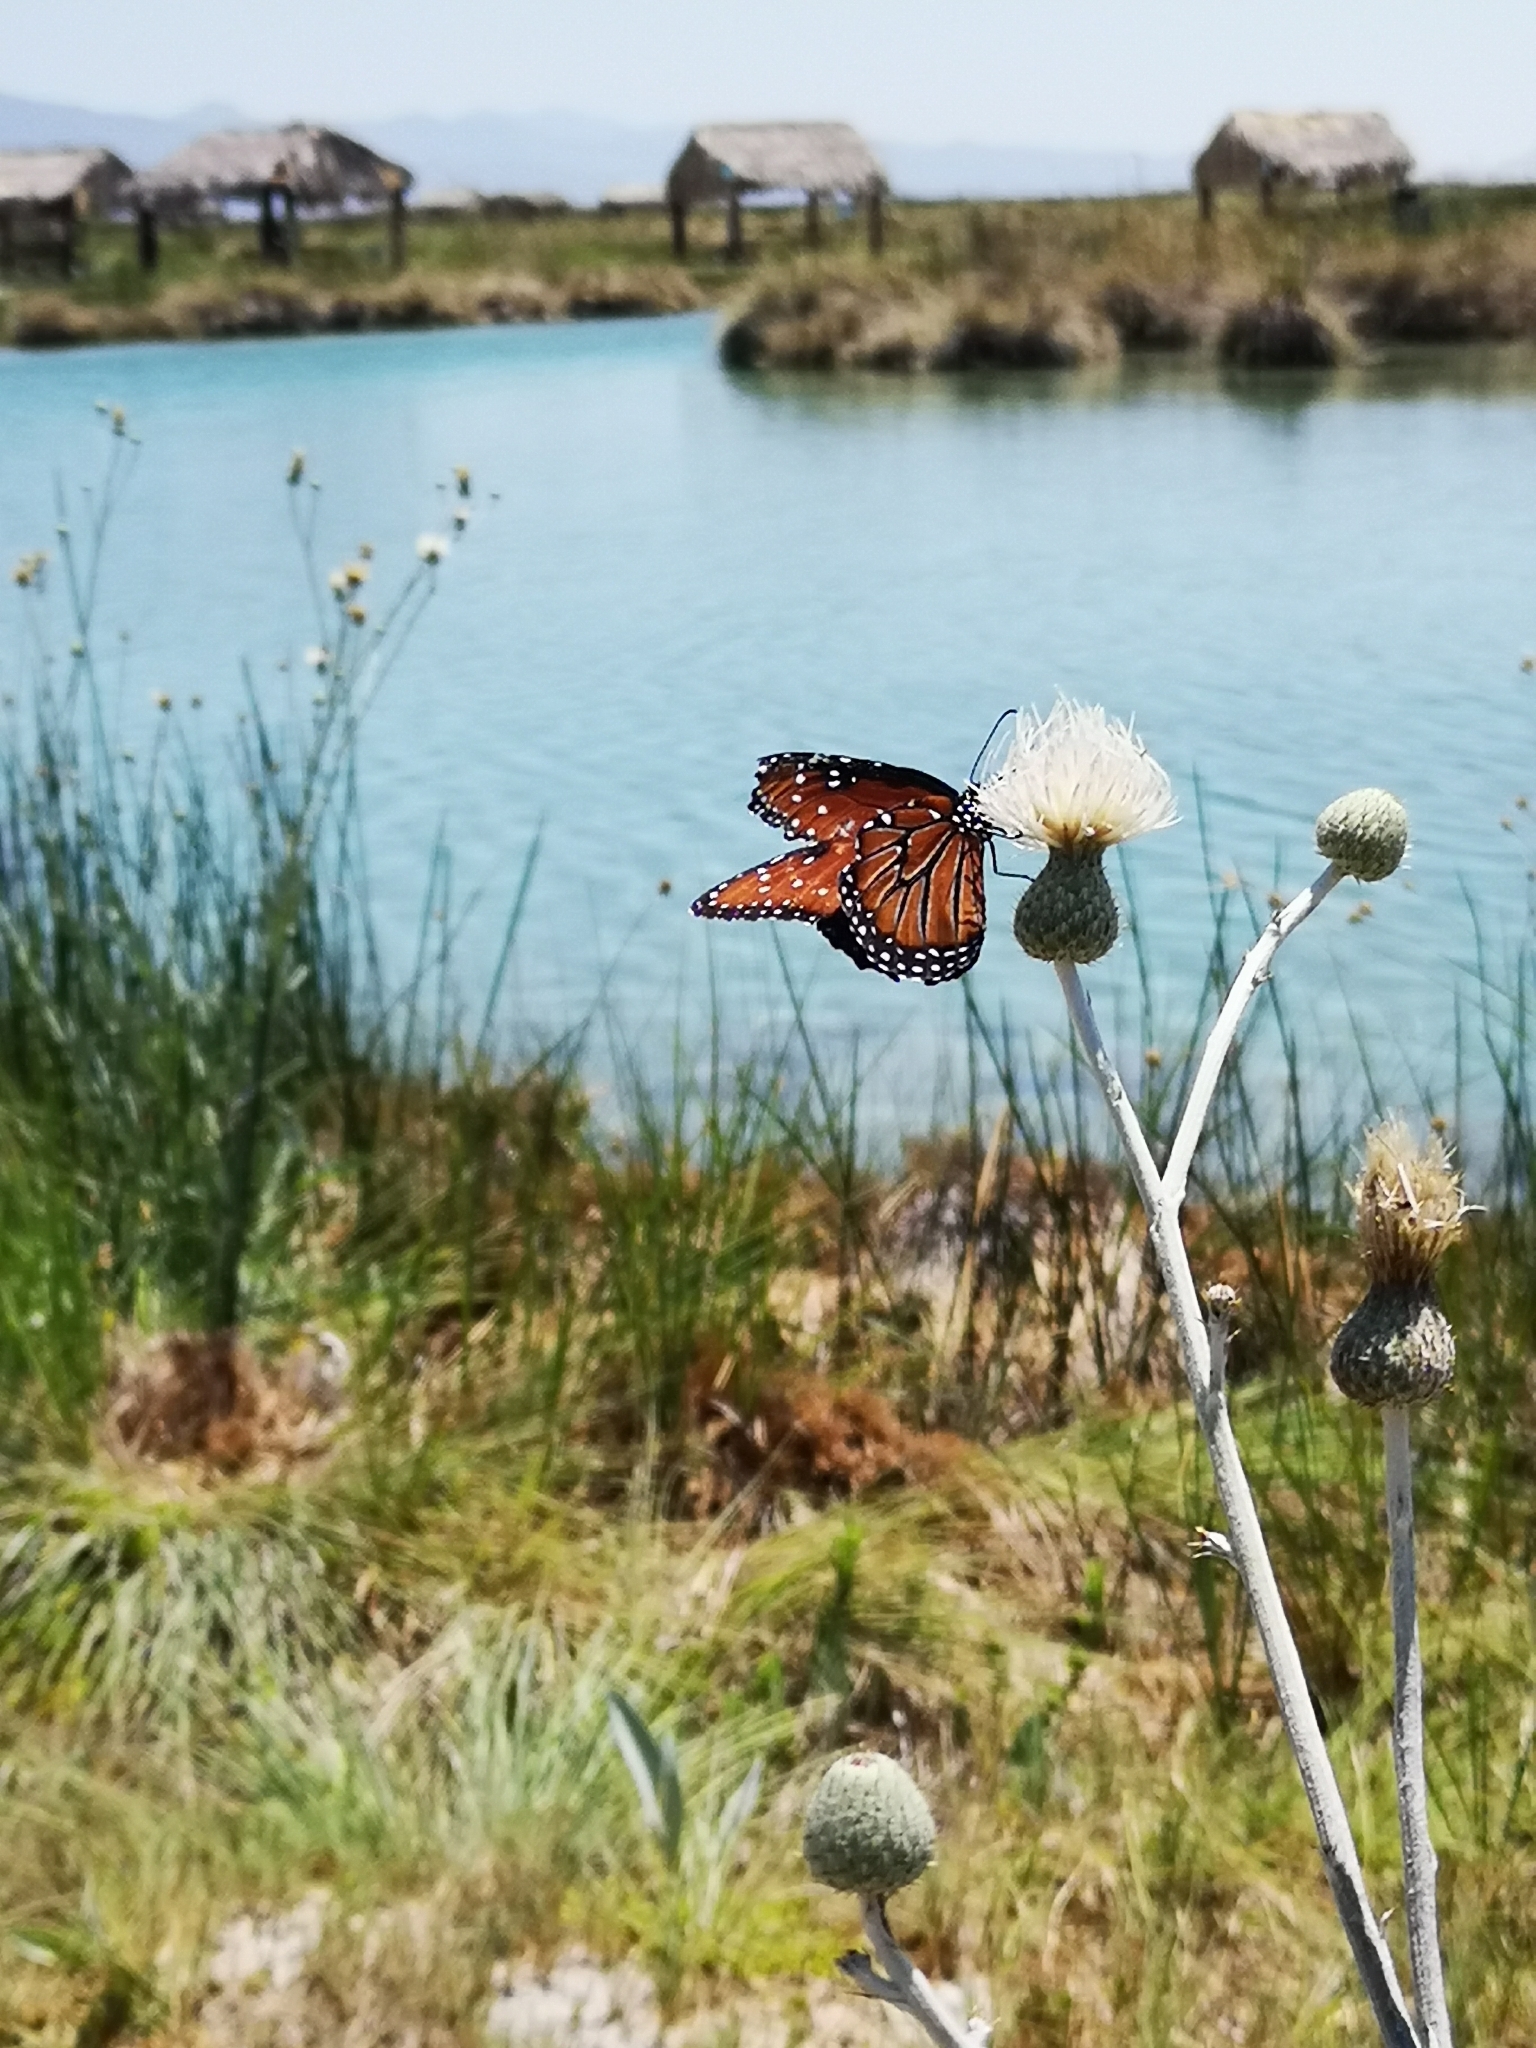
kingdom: Animalia
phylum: Arthropoda
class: Insecta
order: Lepidoptera
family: Nymphalidae
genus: Danaus
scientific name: Danaus gilippus
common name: Queen
